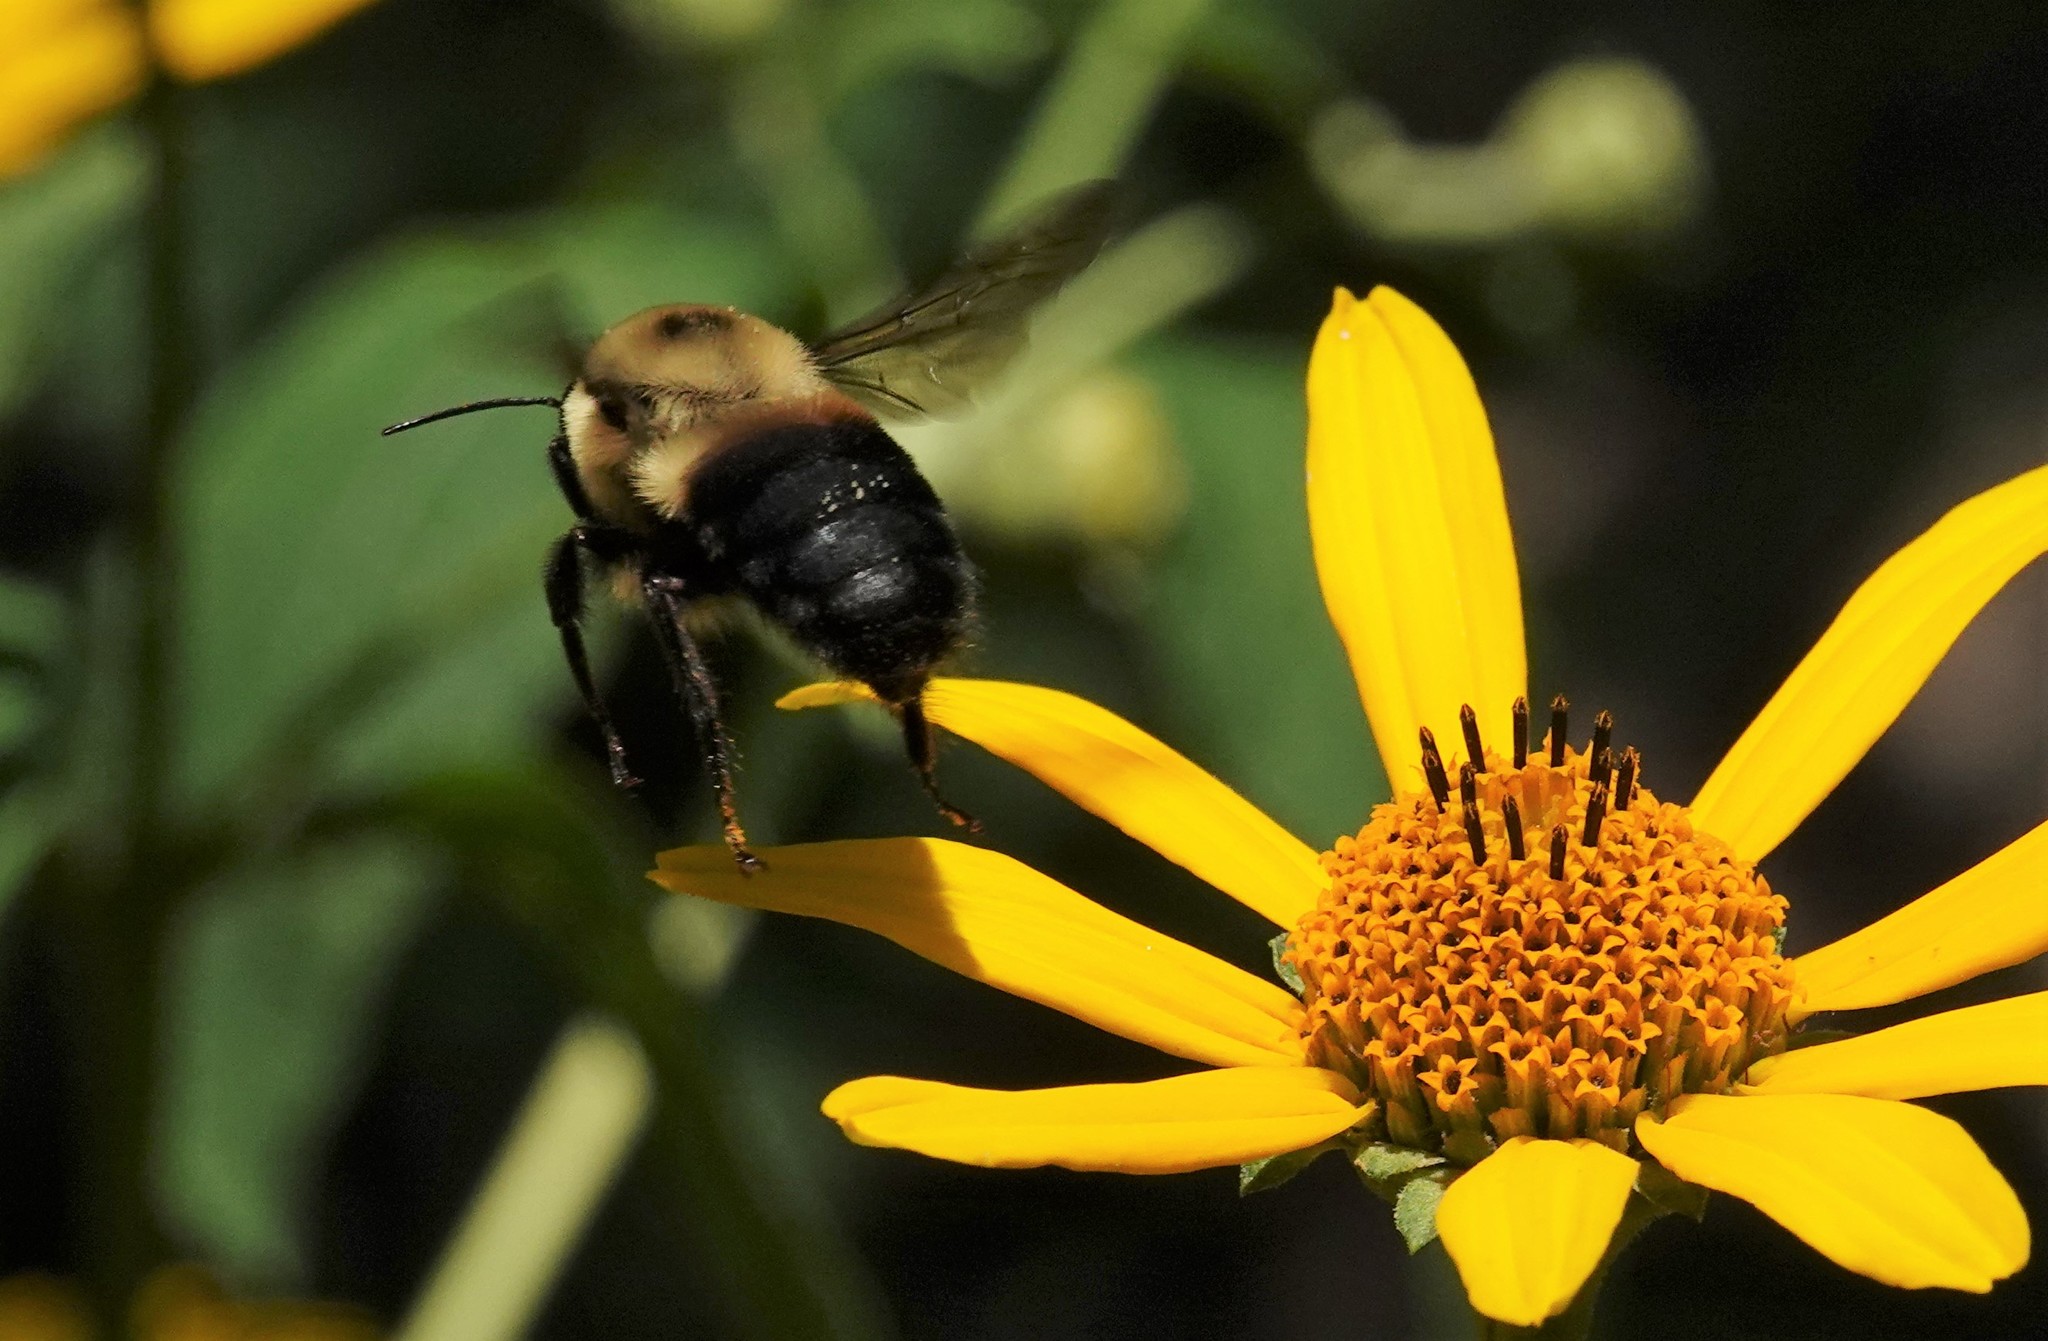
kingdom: Animalia
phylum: Arthropoda
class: Insecta
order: Hymenoptera
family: Apidae
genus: Bombus
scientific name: Bombus griseocollis
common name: Brown-belted bumble bee
